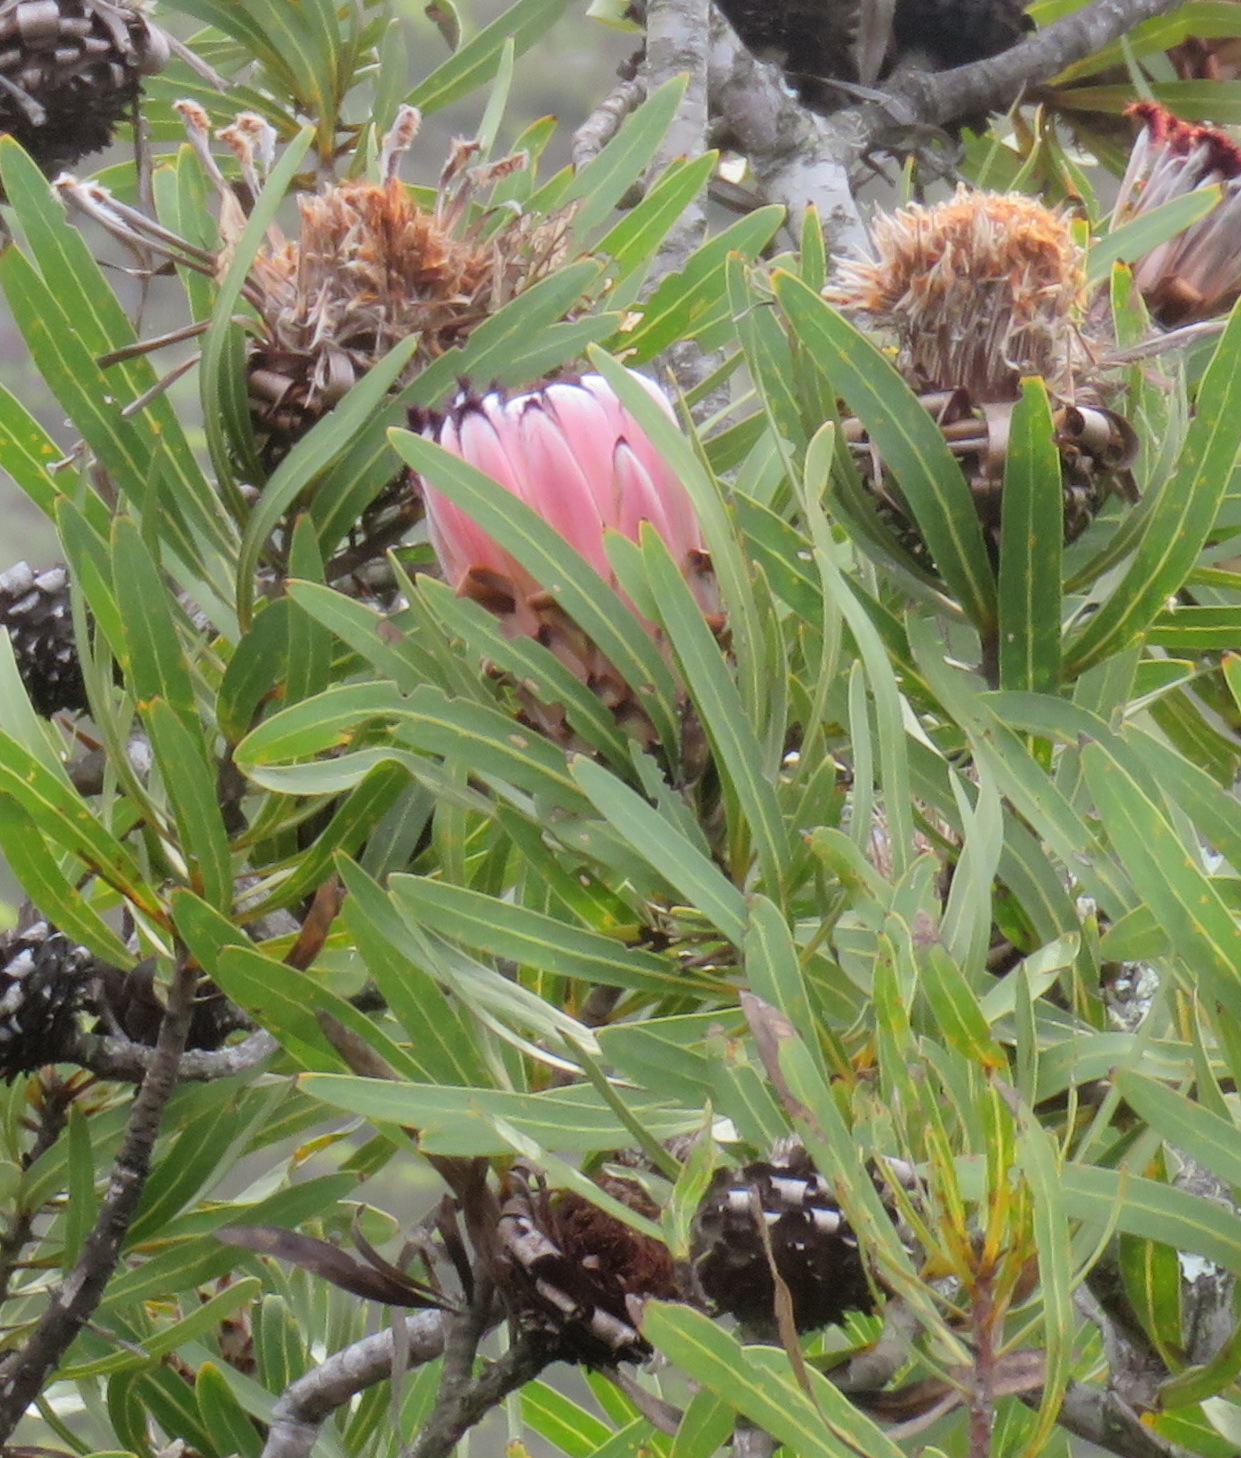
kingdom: Plantae
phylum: Tracheophyta
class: Magnoliopsida
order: Proteales
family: Proteaceae
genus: Protea
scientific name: Protea neriifolia
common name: Blue sugarbush
